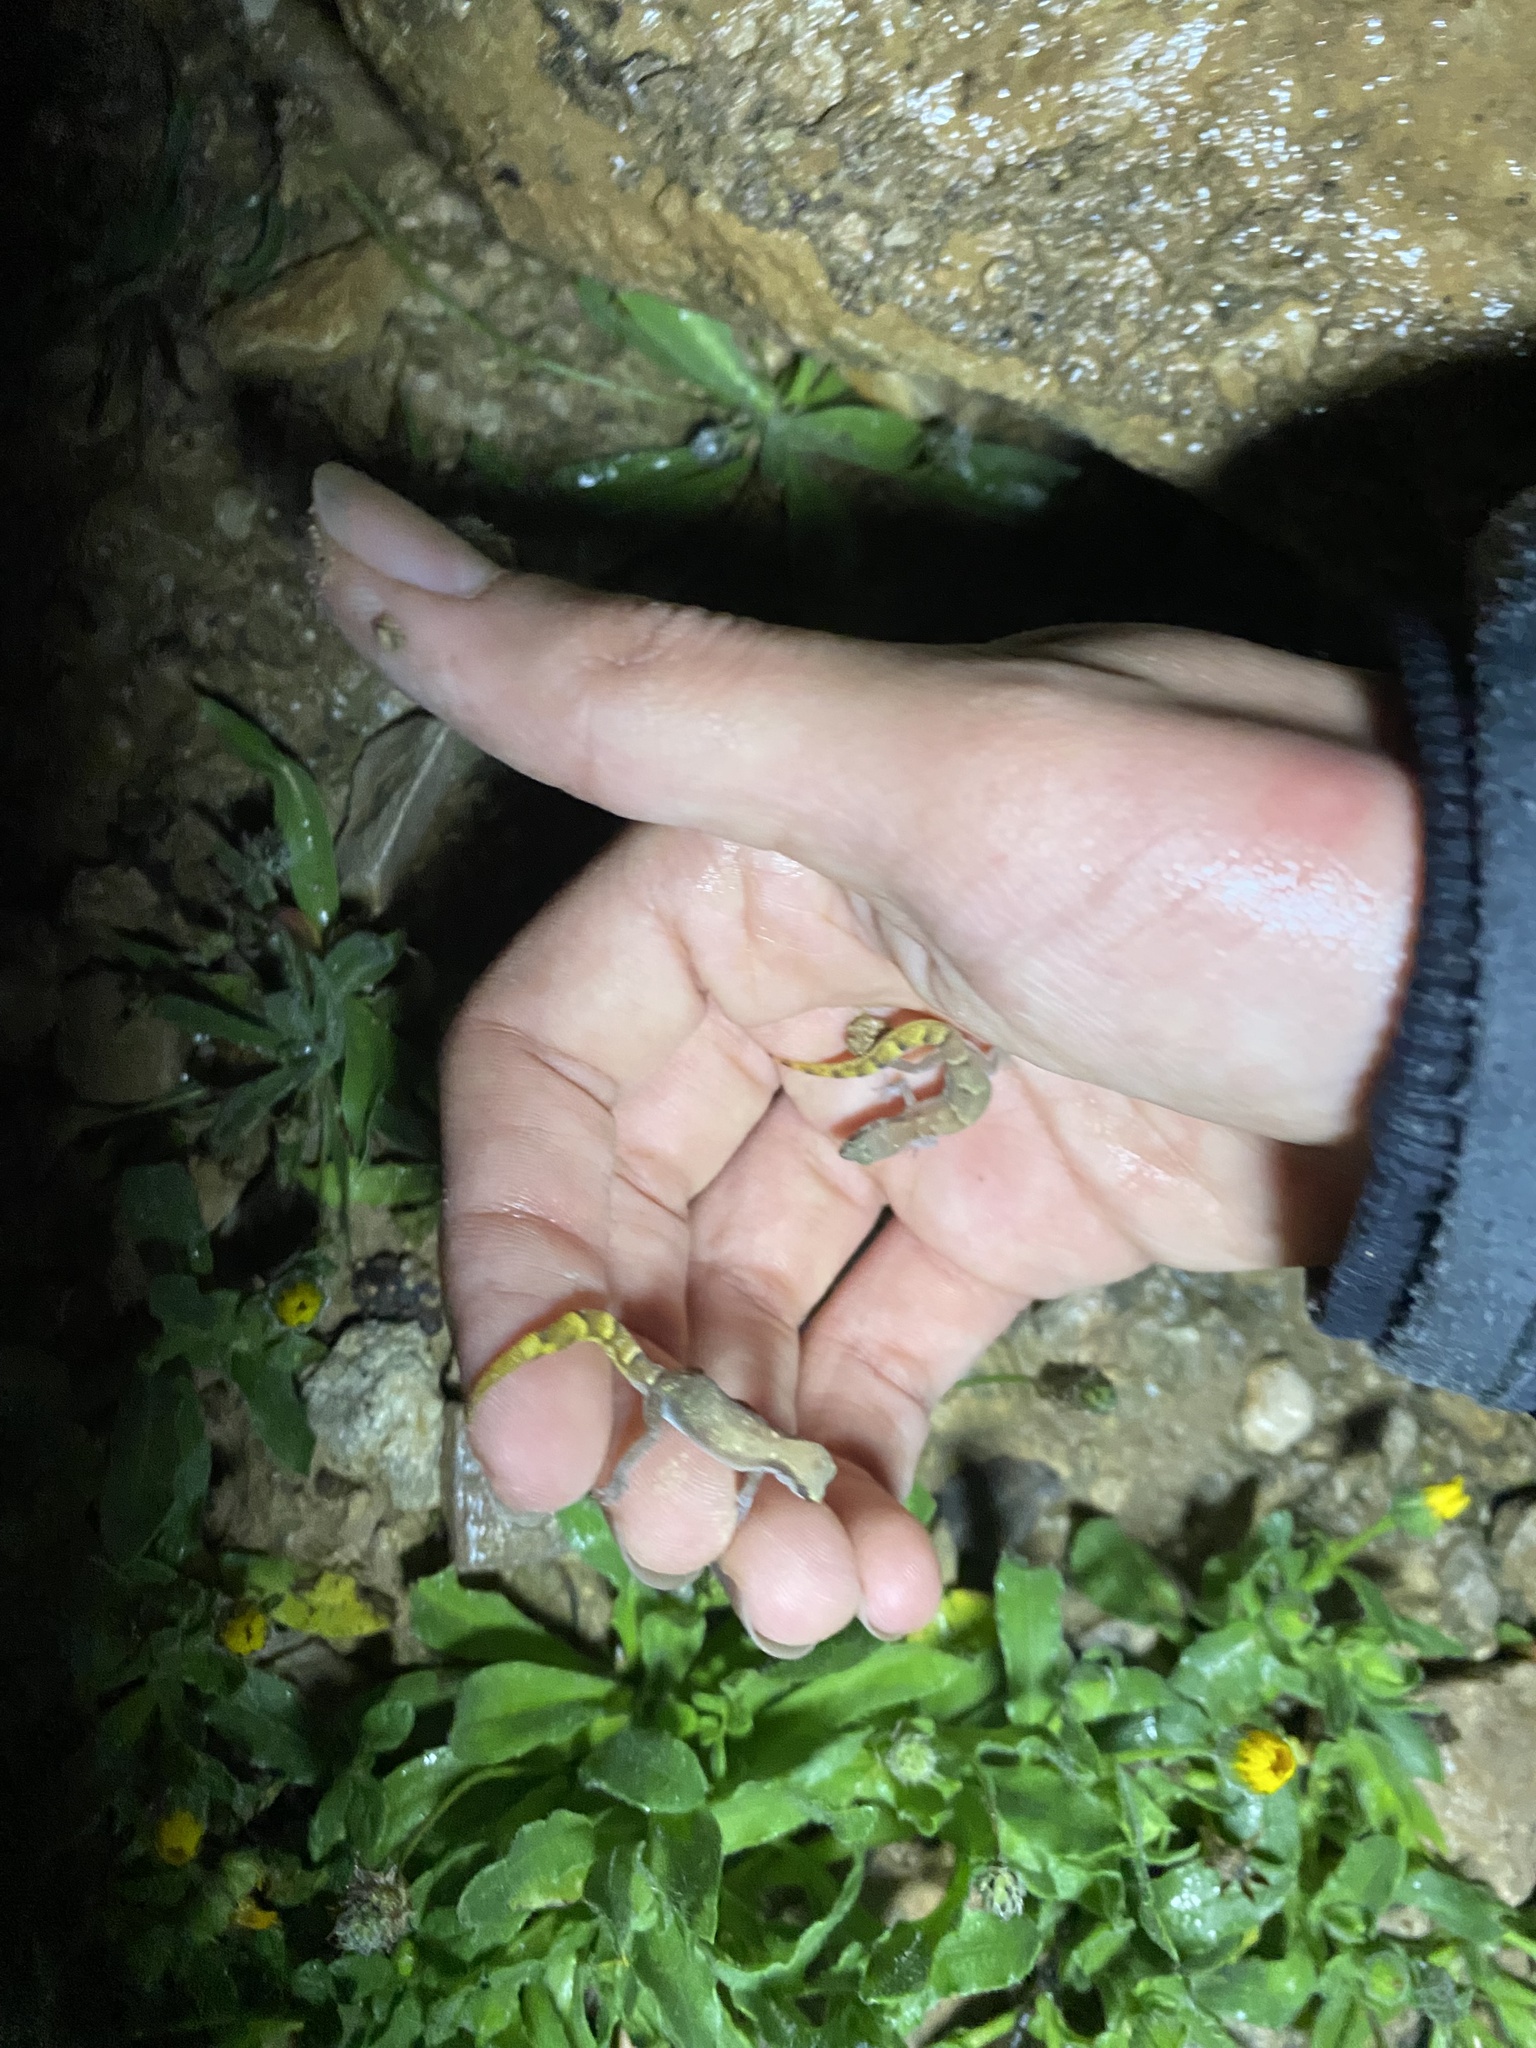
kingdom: Animalia
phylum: Chordata
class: Squamata
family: Gekkonidae
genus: Microgecko
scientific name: Microgecko helenae
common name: Banded dwarf gecko
